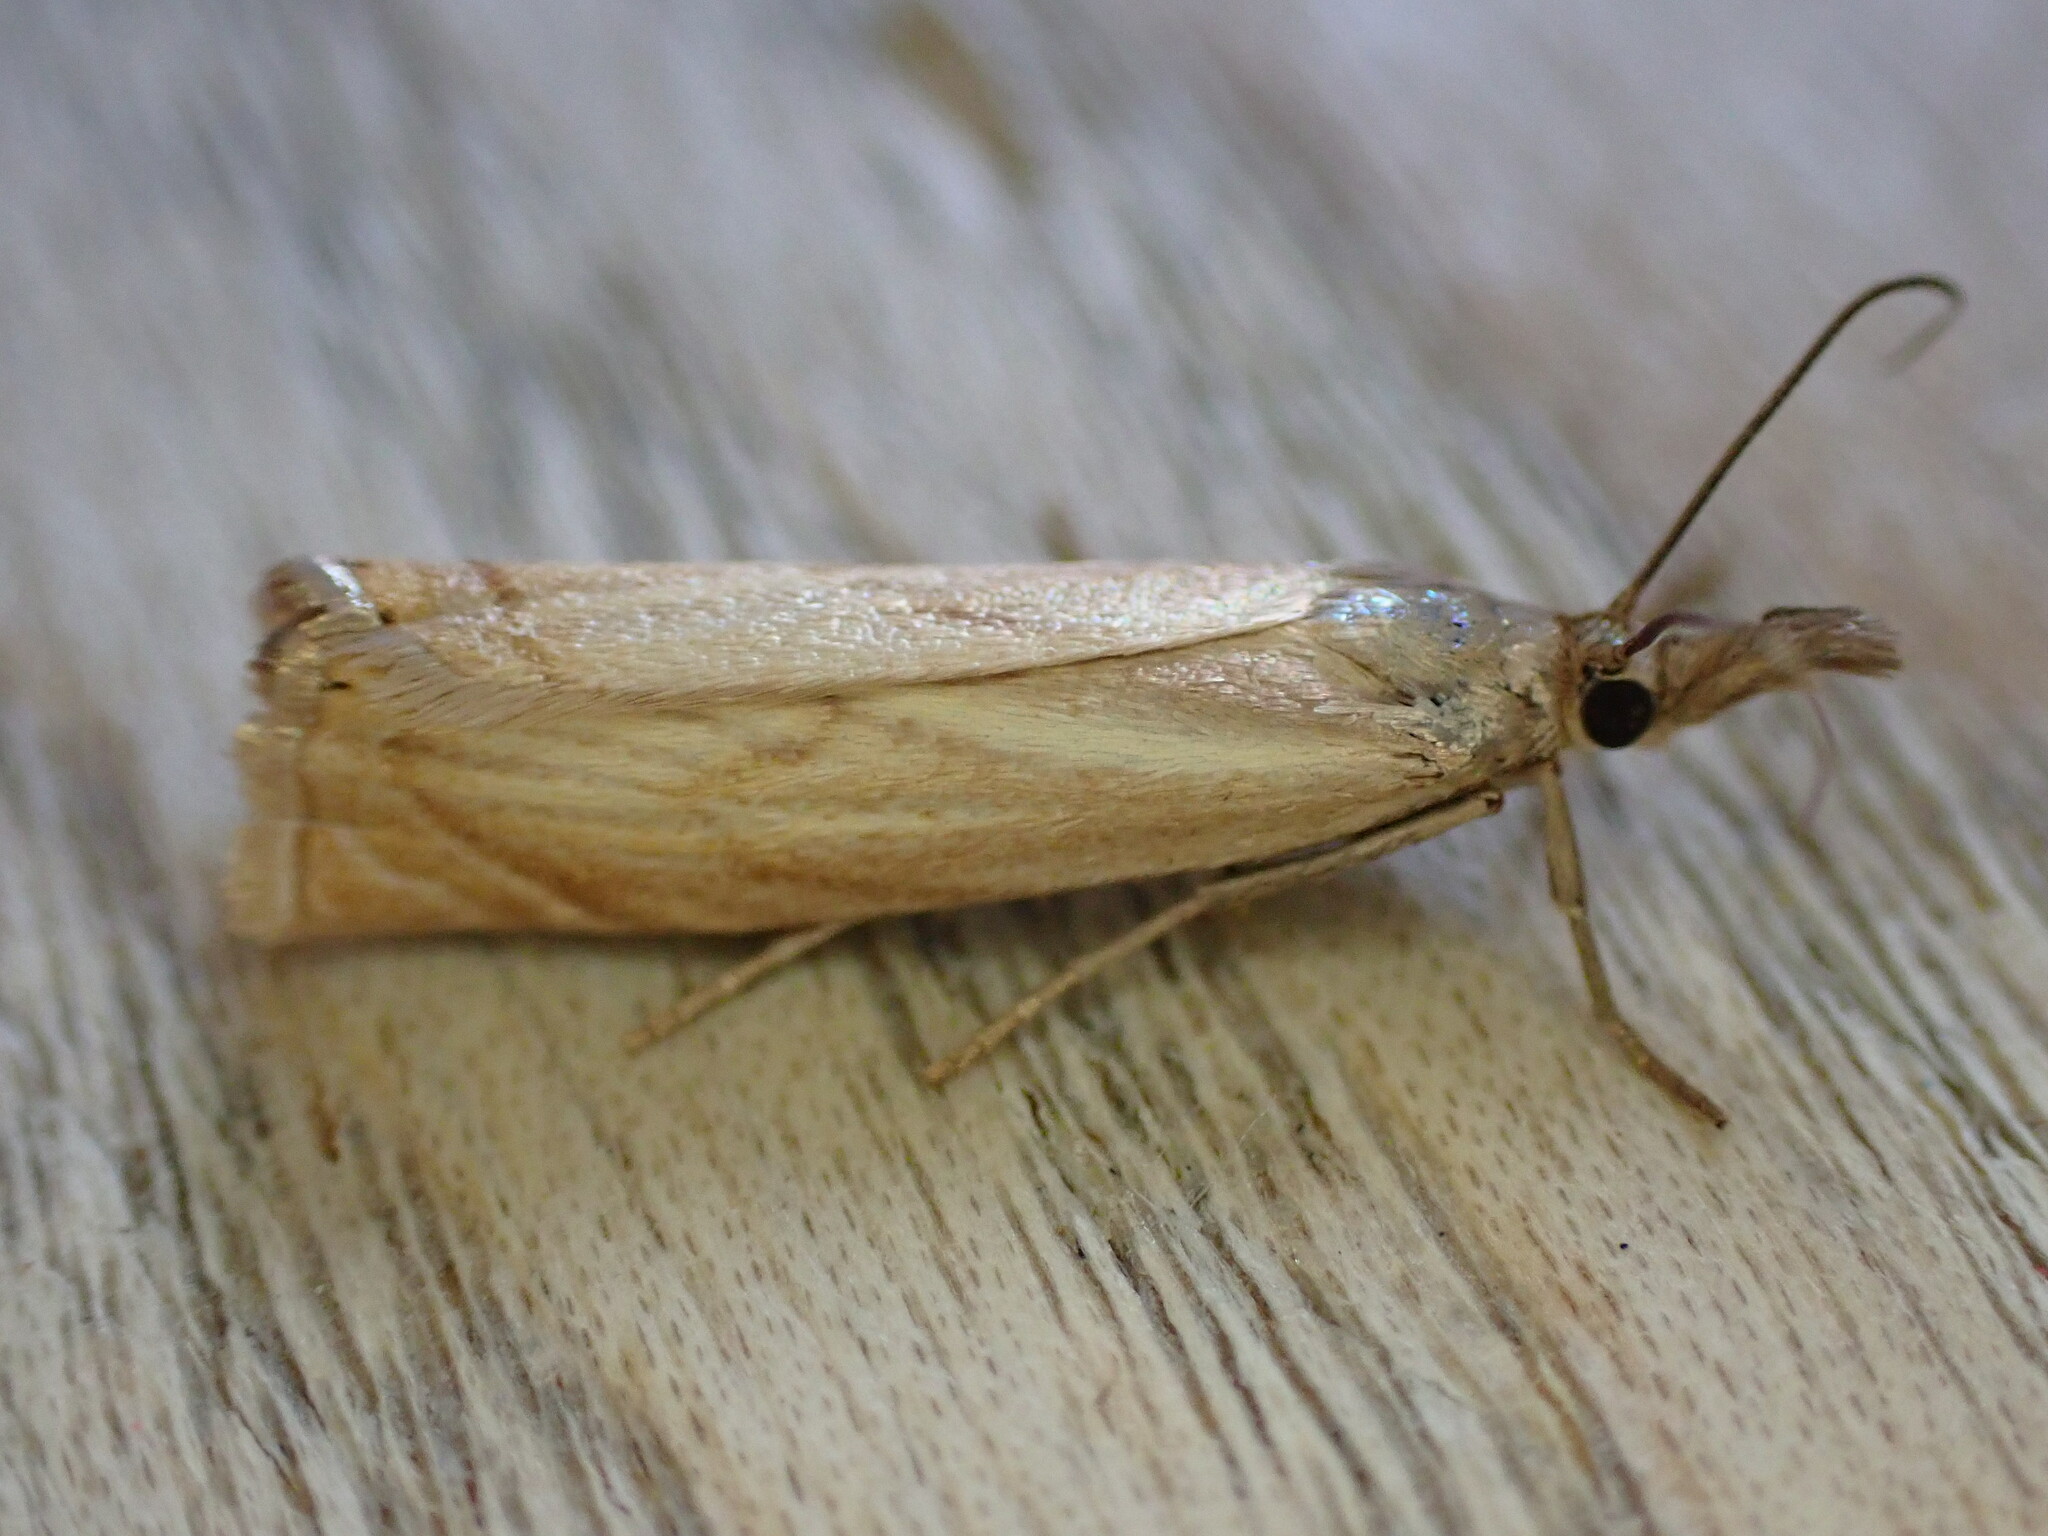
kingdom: Animalia
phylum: Arthropoda
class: Insecta
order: Lepidoptera
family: Crambidae
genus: Chrysoteuchia
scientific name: Chrysoteuchia culmella
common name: Garden grass-veneer
